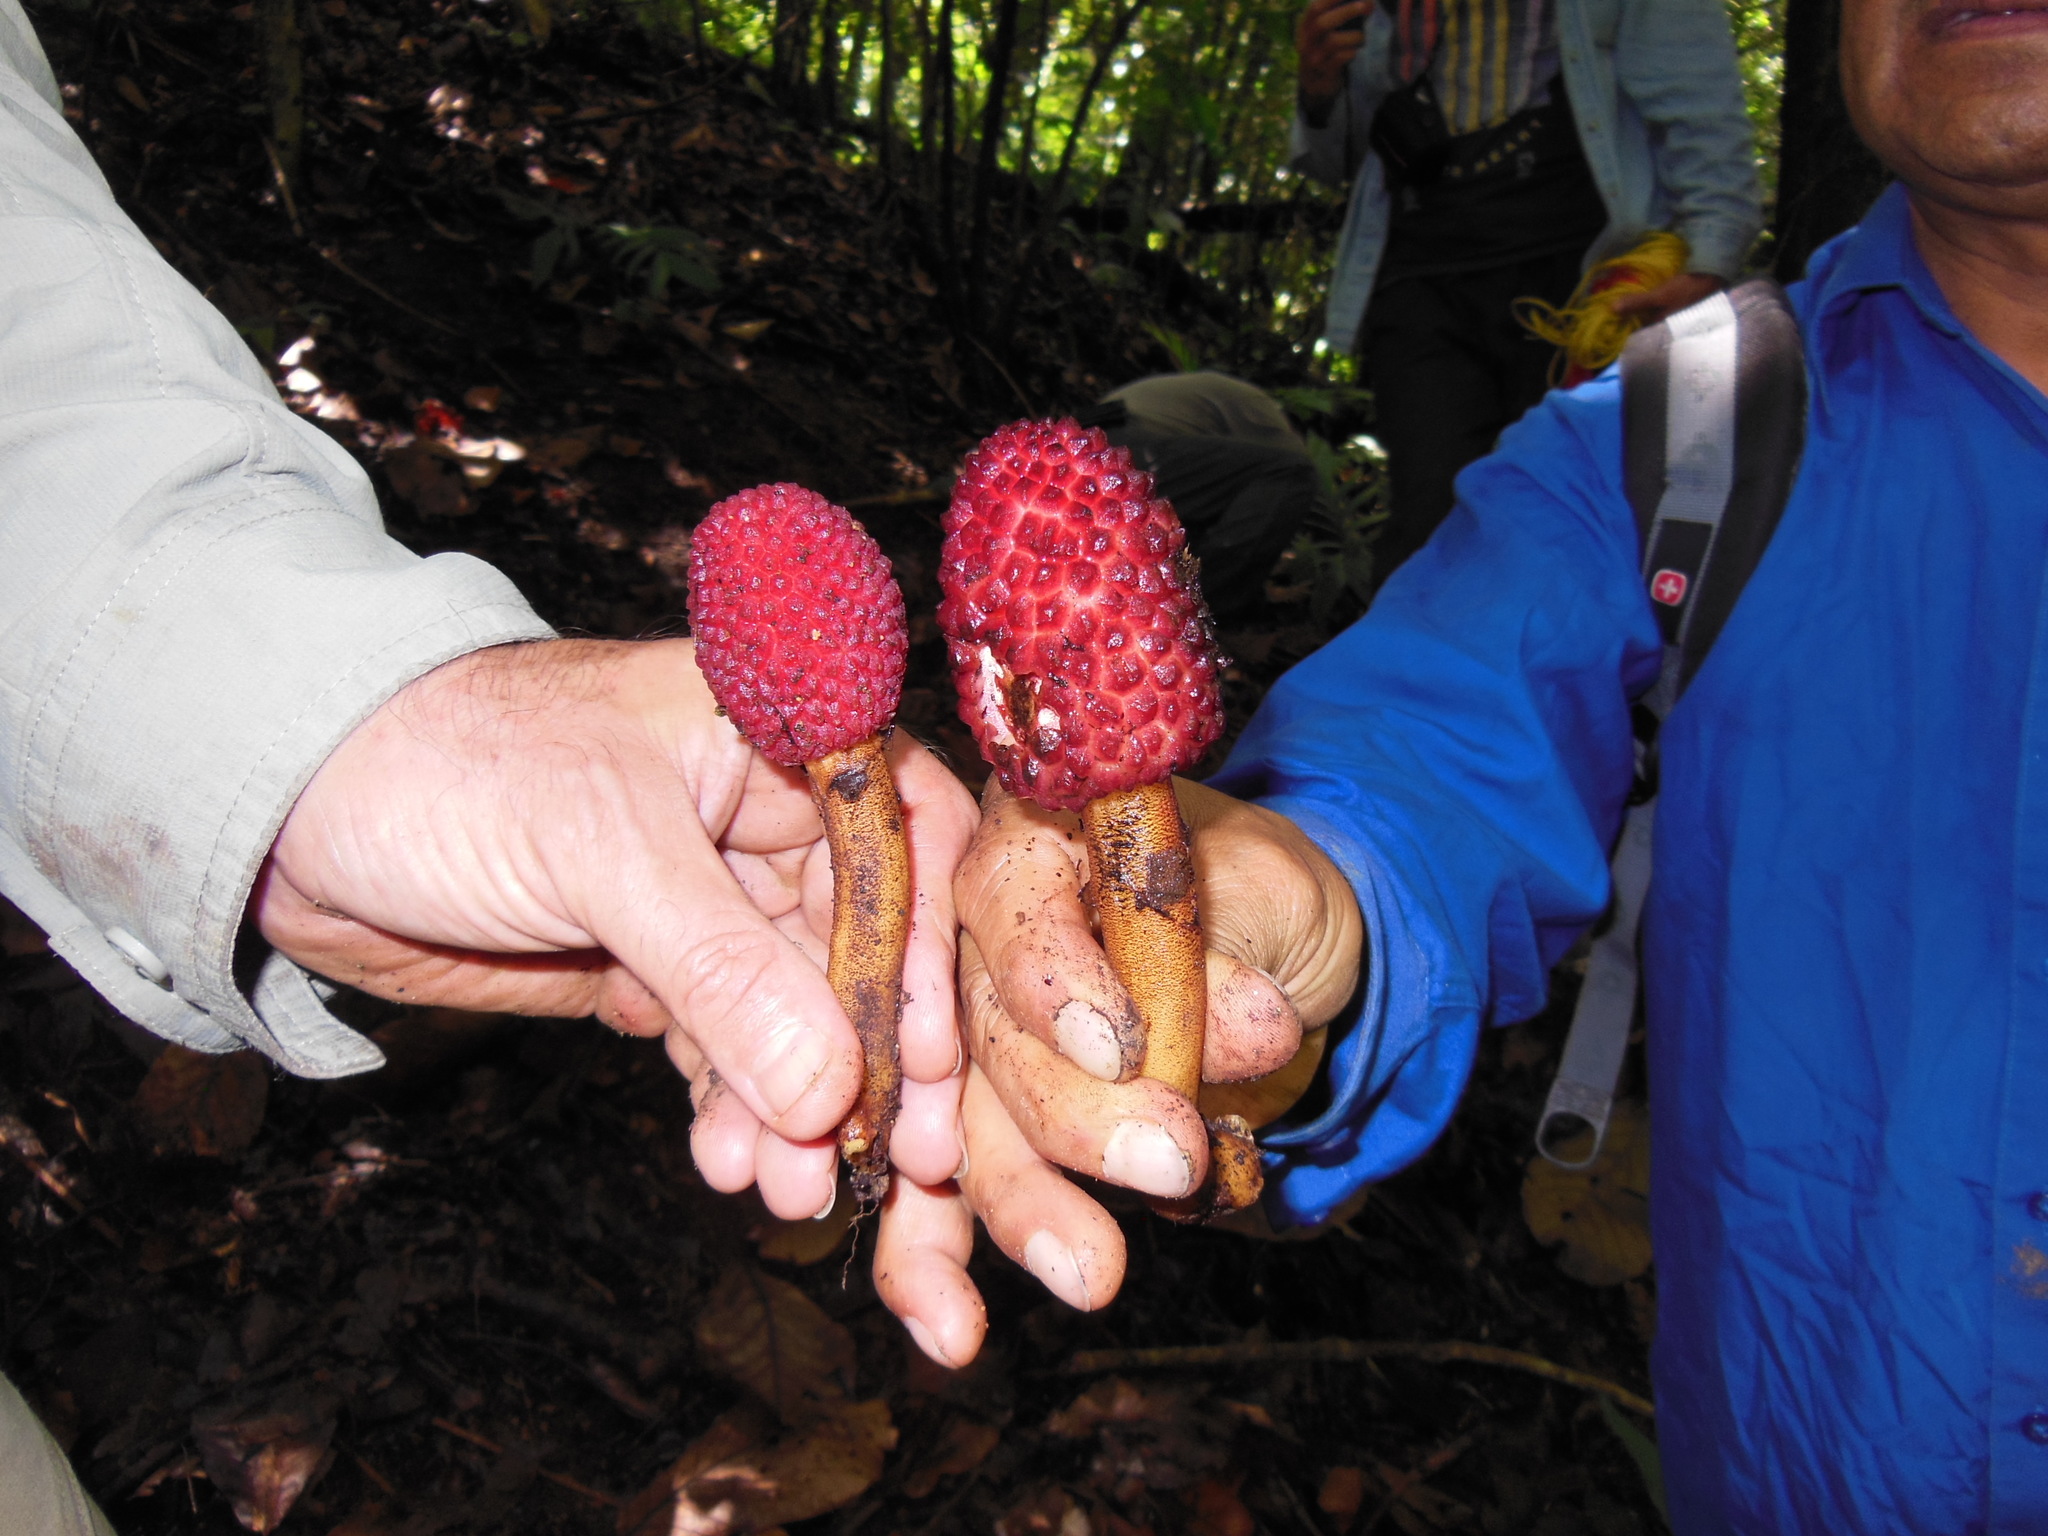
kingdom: Plantae
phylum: Tracheophyta
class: Magnoliopsida
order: Santalales
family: Balanophoraceae
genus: Helosis
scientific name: Helosis cayennensis
